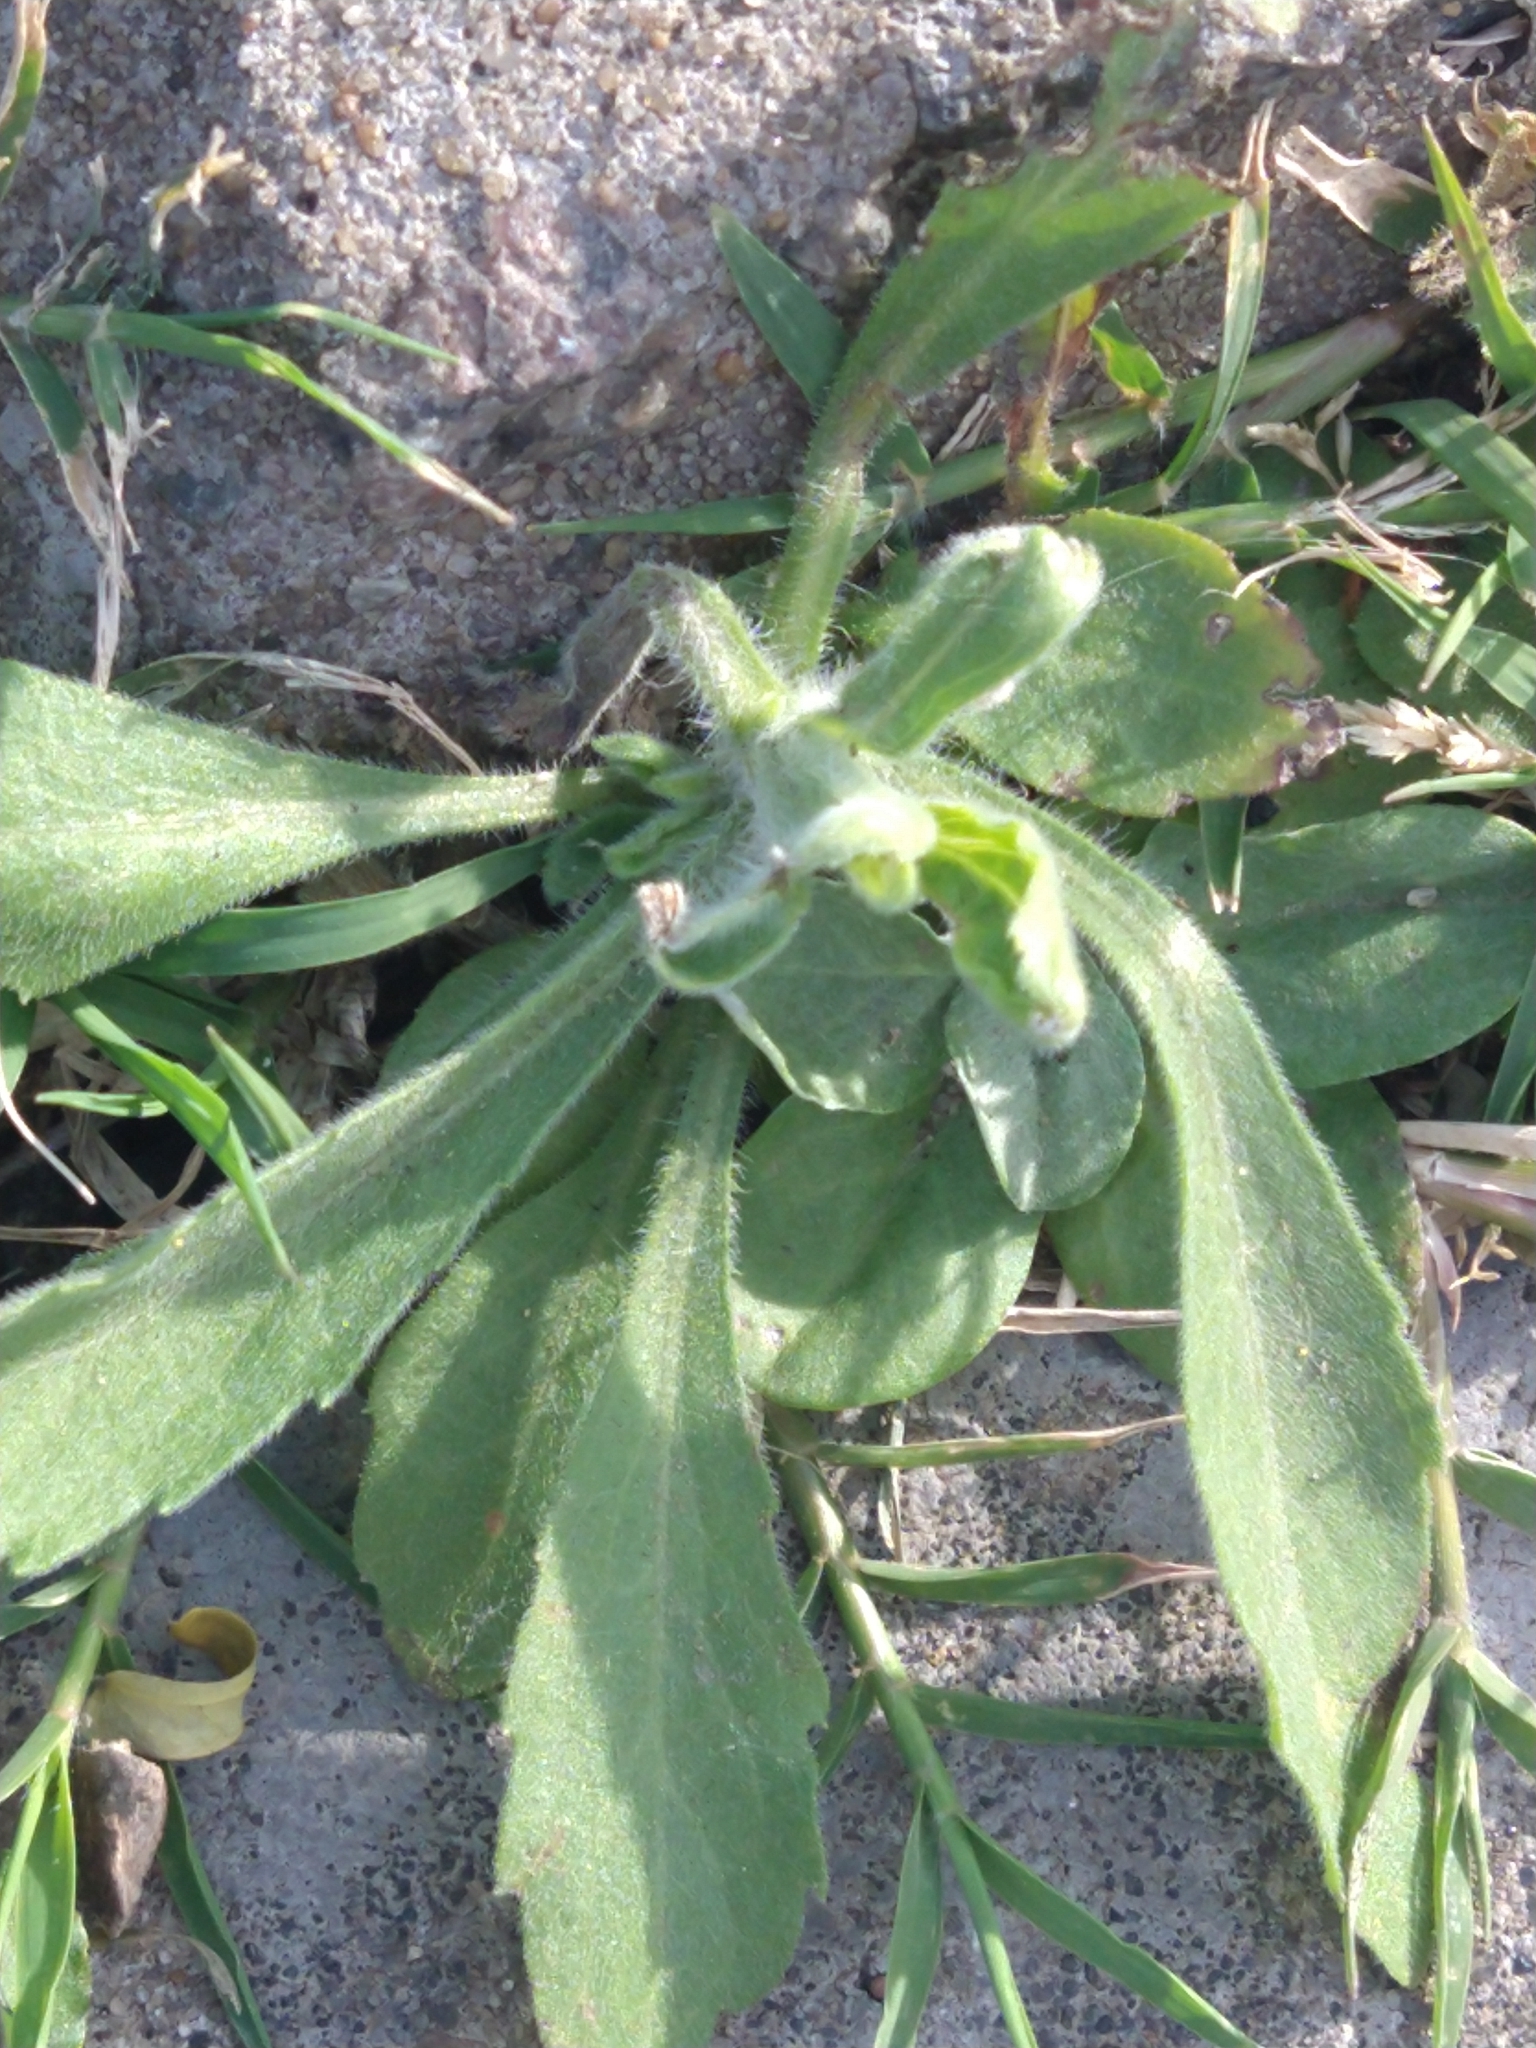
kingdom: Plantae
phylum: Tracheophyta
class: Magnoliopsida
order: Asterales
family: Asteraceae
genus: Erigeron
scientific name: Erigeron bonariensis
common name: Argentine fleabane
